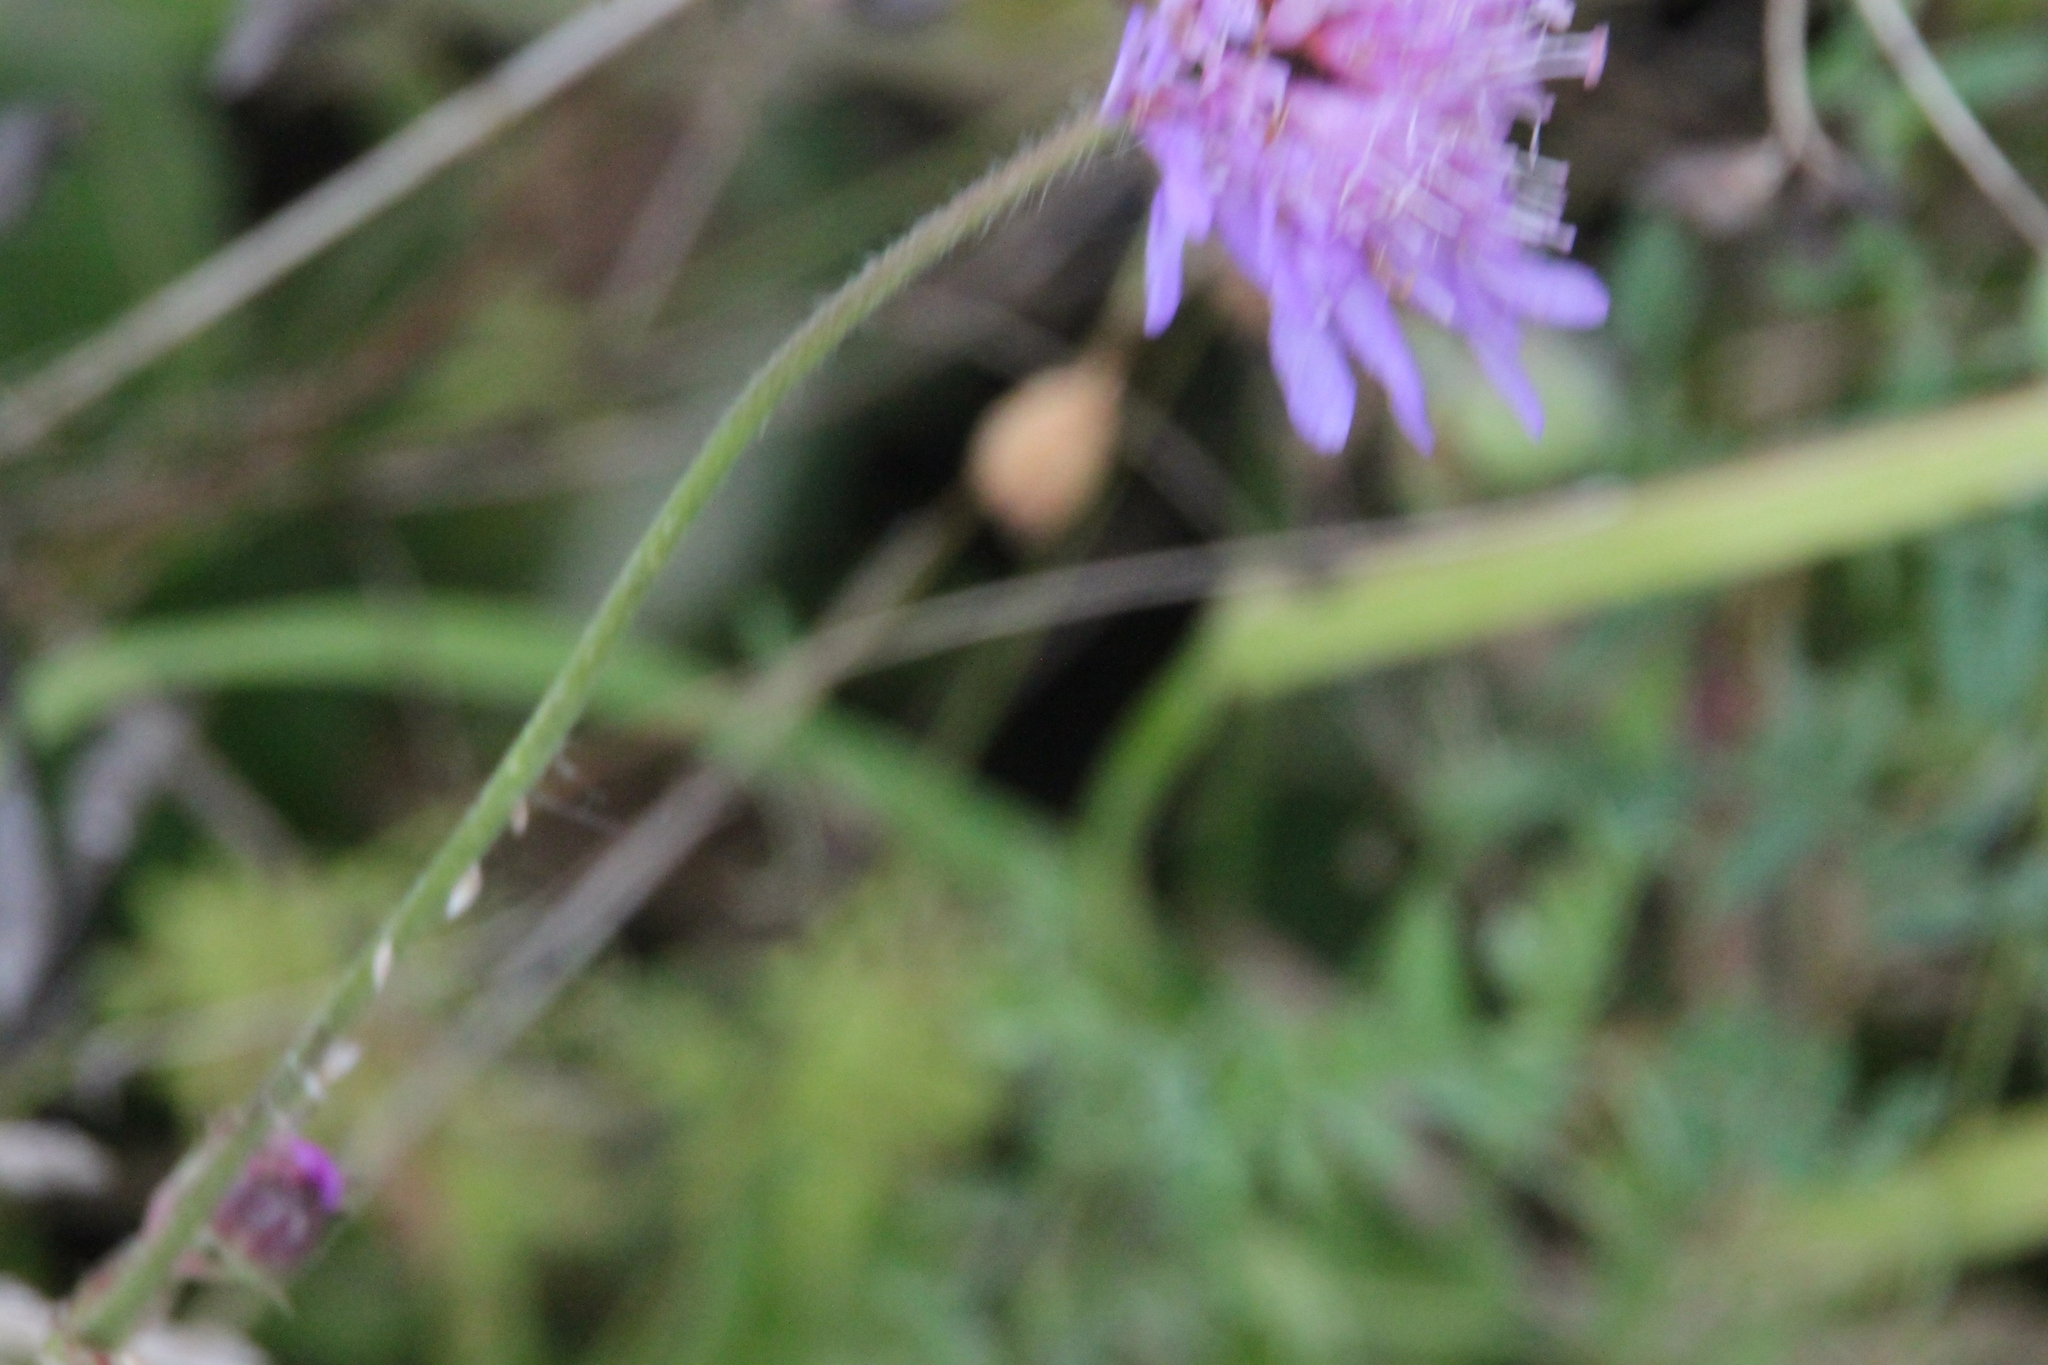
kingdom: Plantae
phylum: Tracheophyta
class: Magnoliopsida
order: Dipsacales
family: Caprifoliaceae
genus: Knautia
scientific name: Knautia arvensis
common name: Field scabiosa
